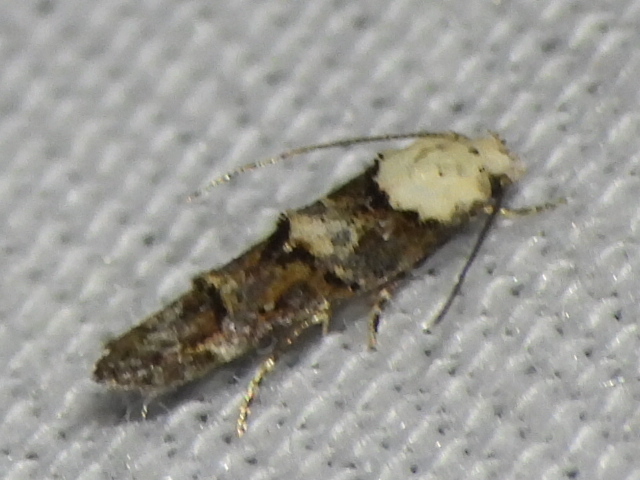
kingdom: Animalia
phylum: Arthropoda
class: Insecta
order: Lepidoptera
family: Momphidae
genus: Mompha
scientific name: Mompha albocapitella
